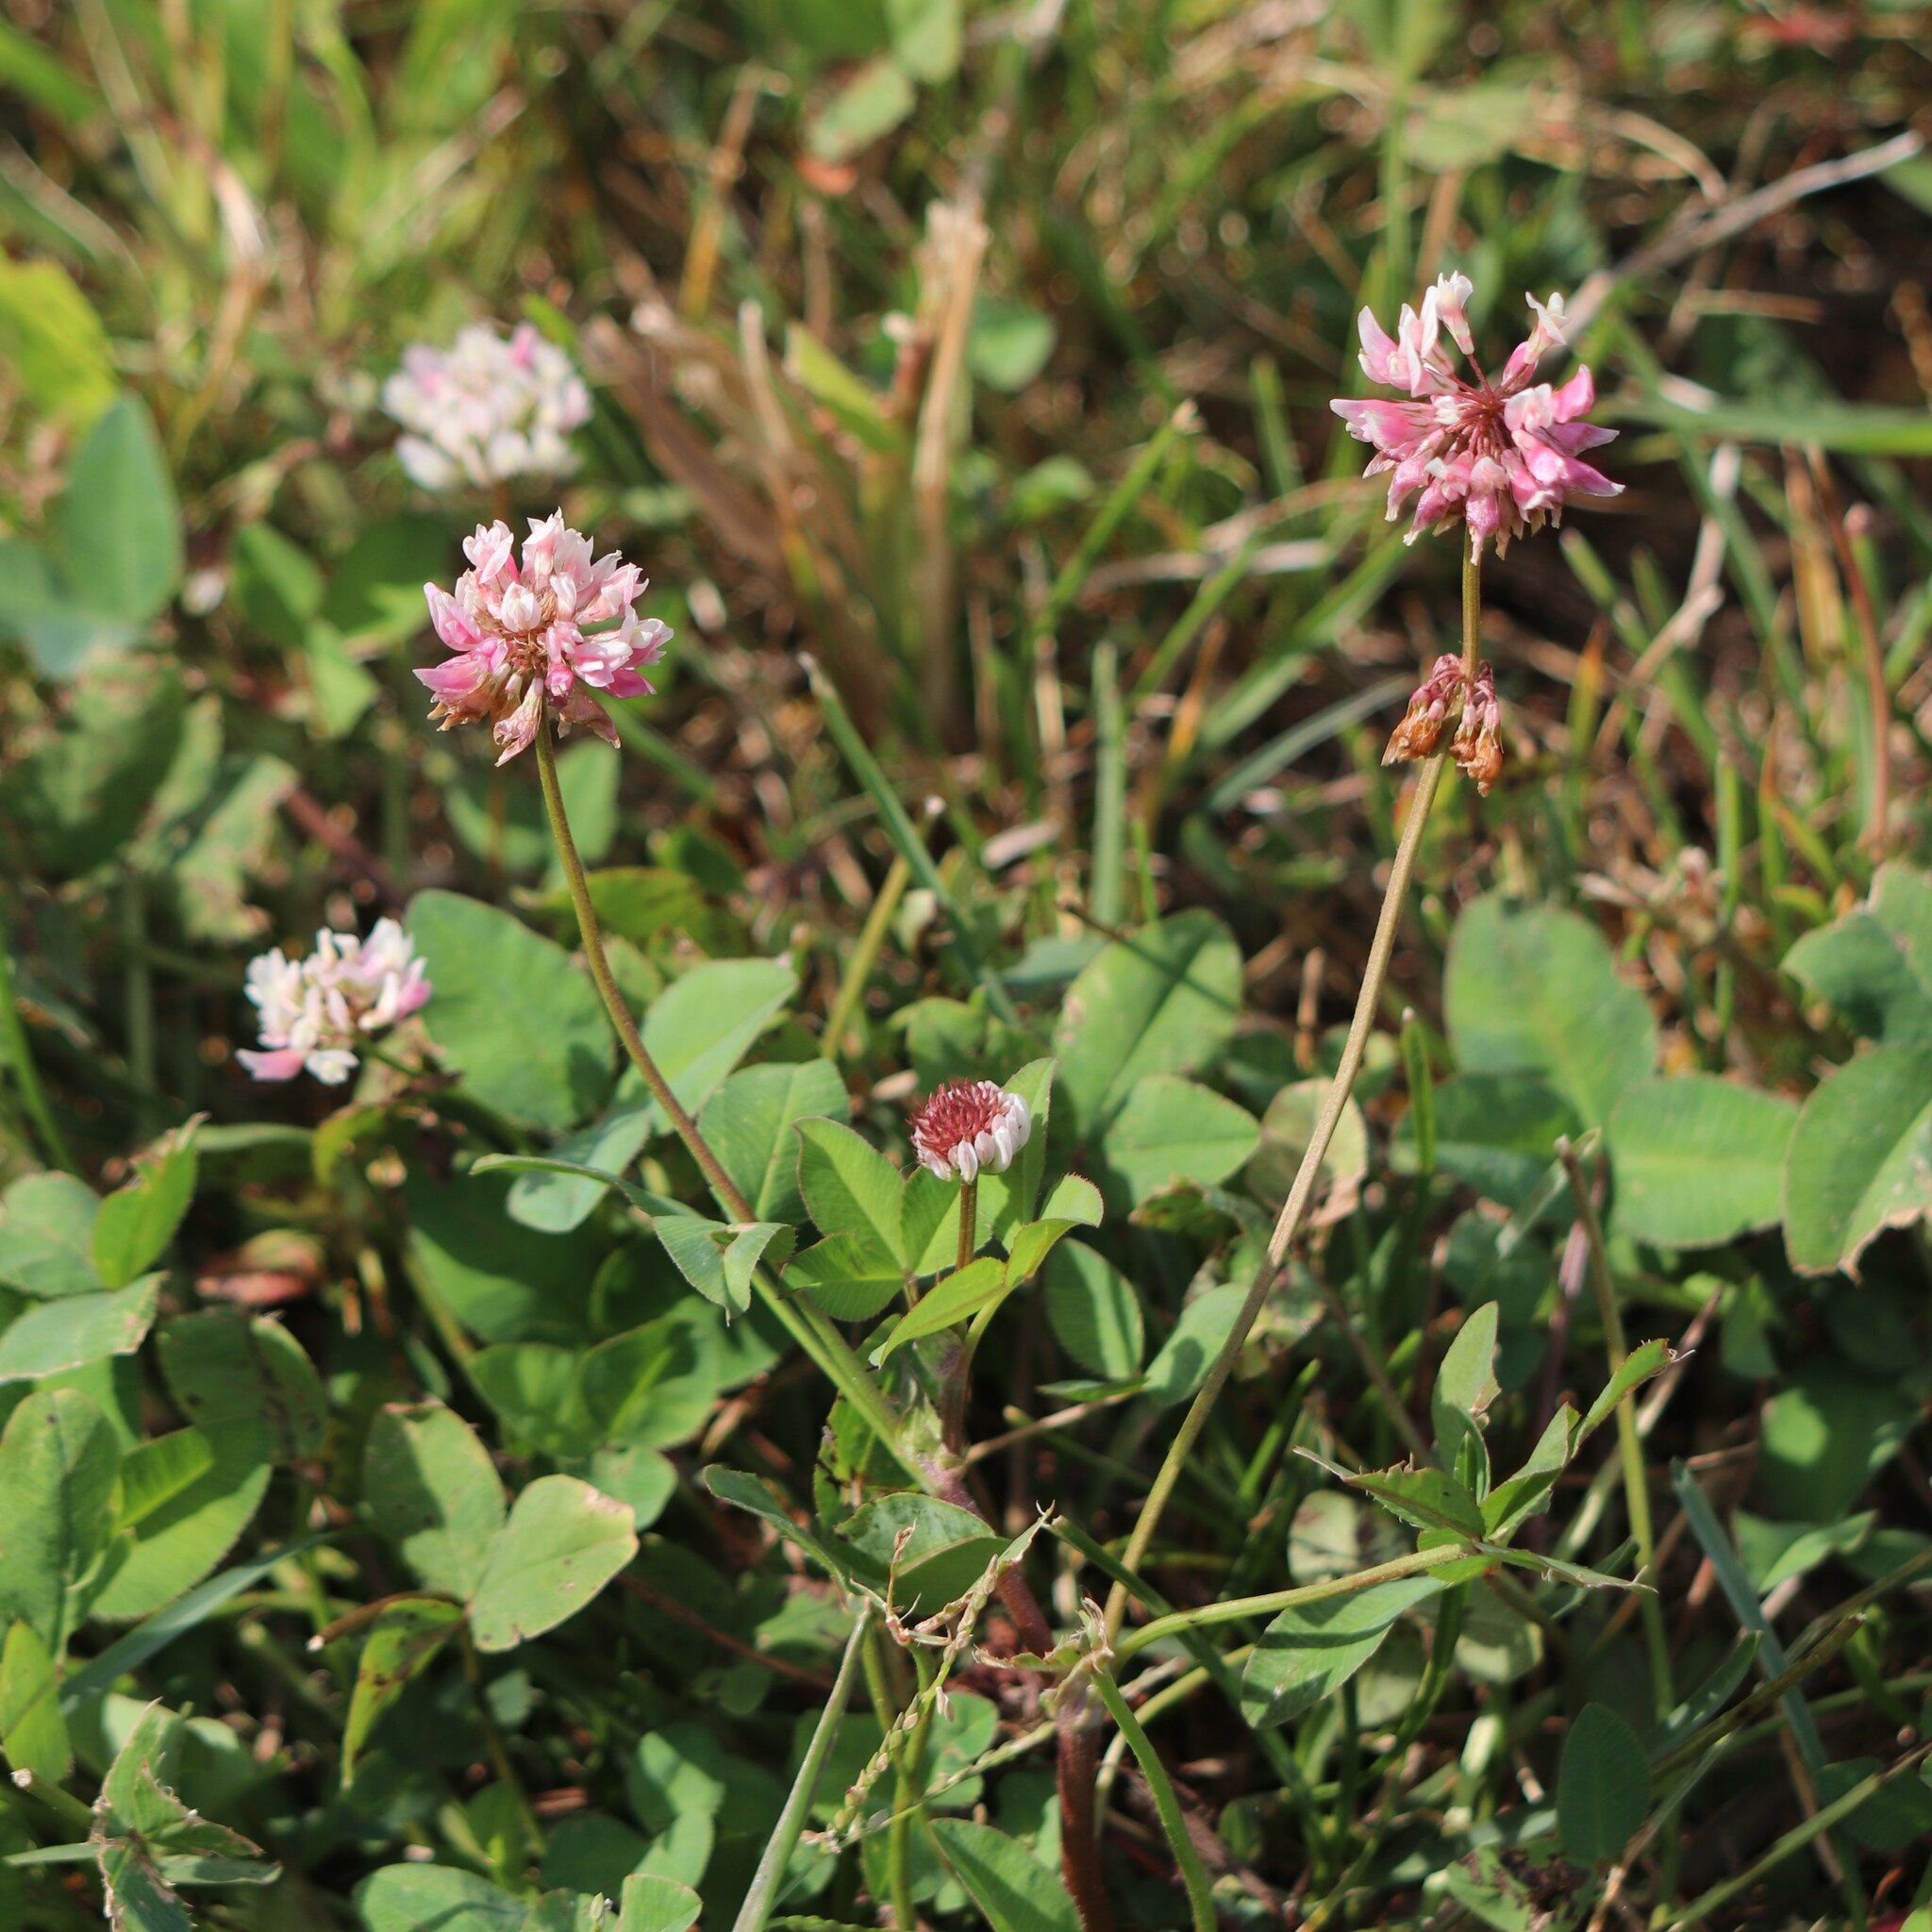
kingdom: Plantae
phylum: Tracheophyta
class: Magnoliopsida
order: Fabales
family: Fabaceae
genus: Trifolium
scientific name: Trifolium hybridum
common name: Alsike clover
